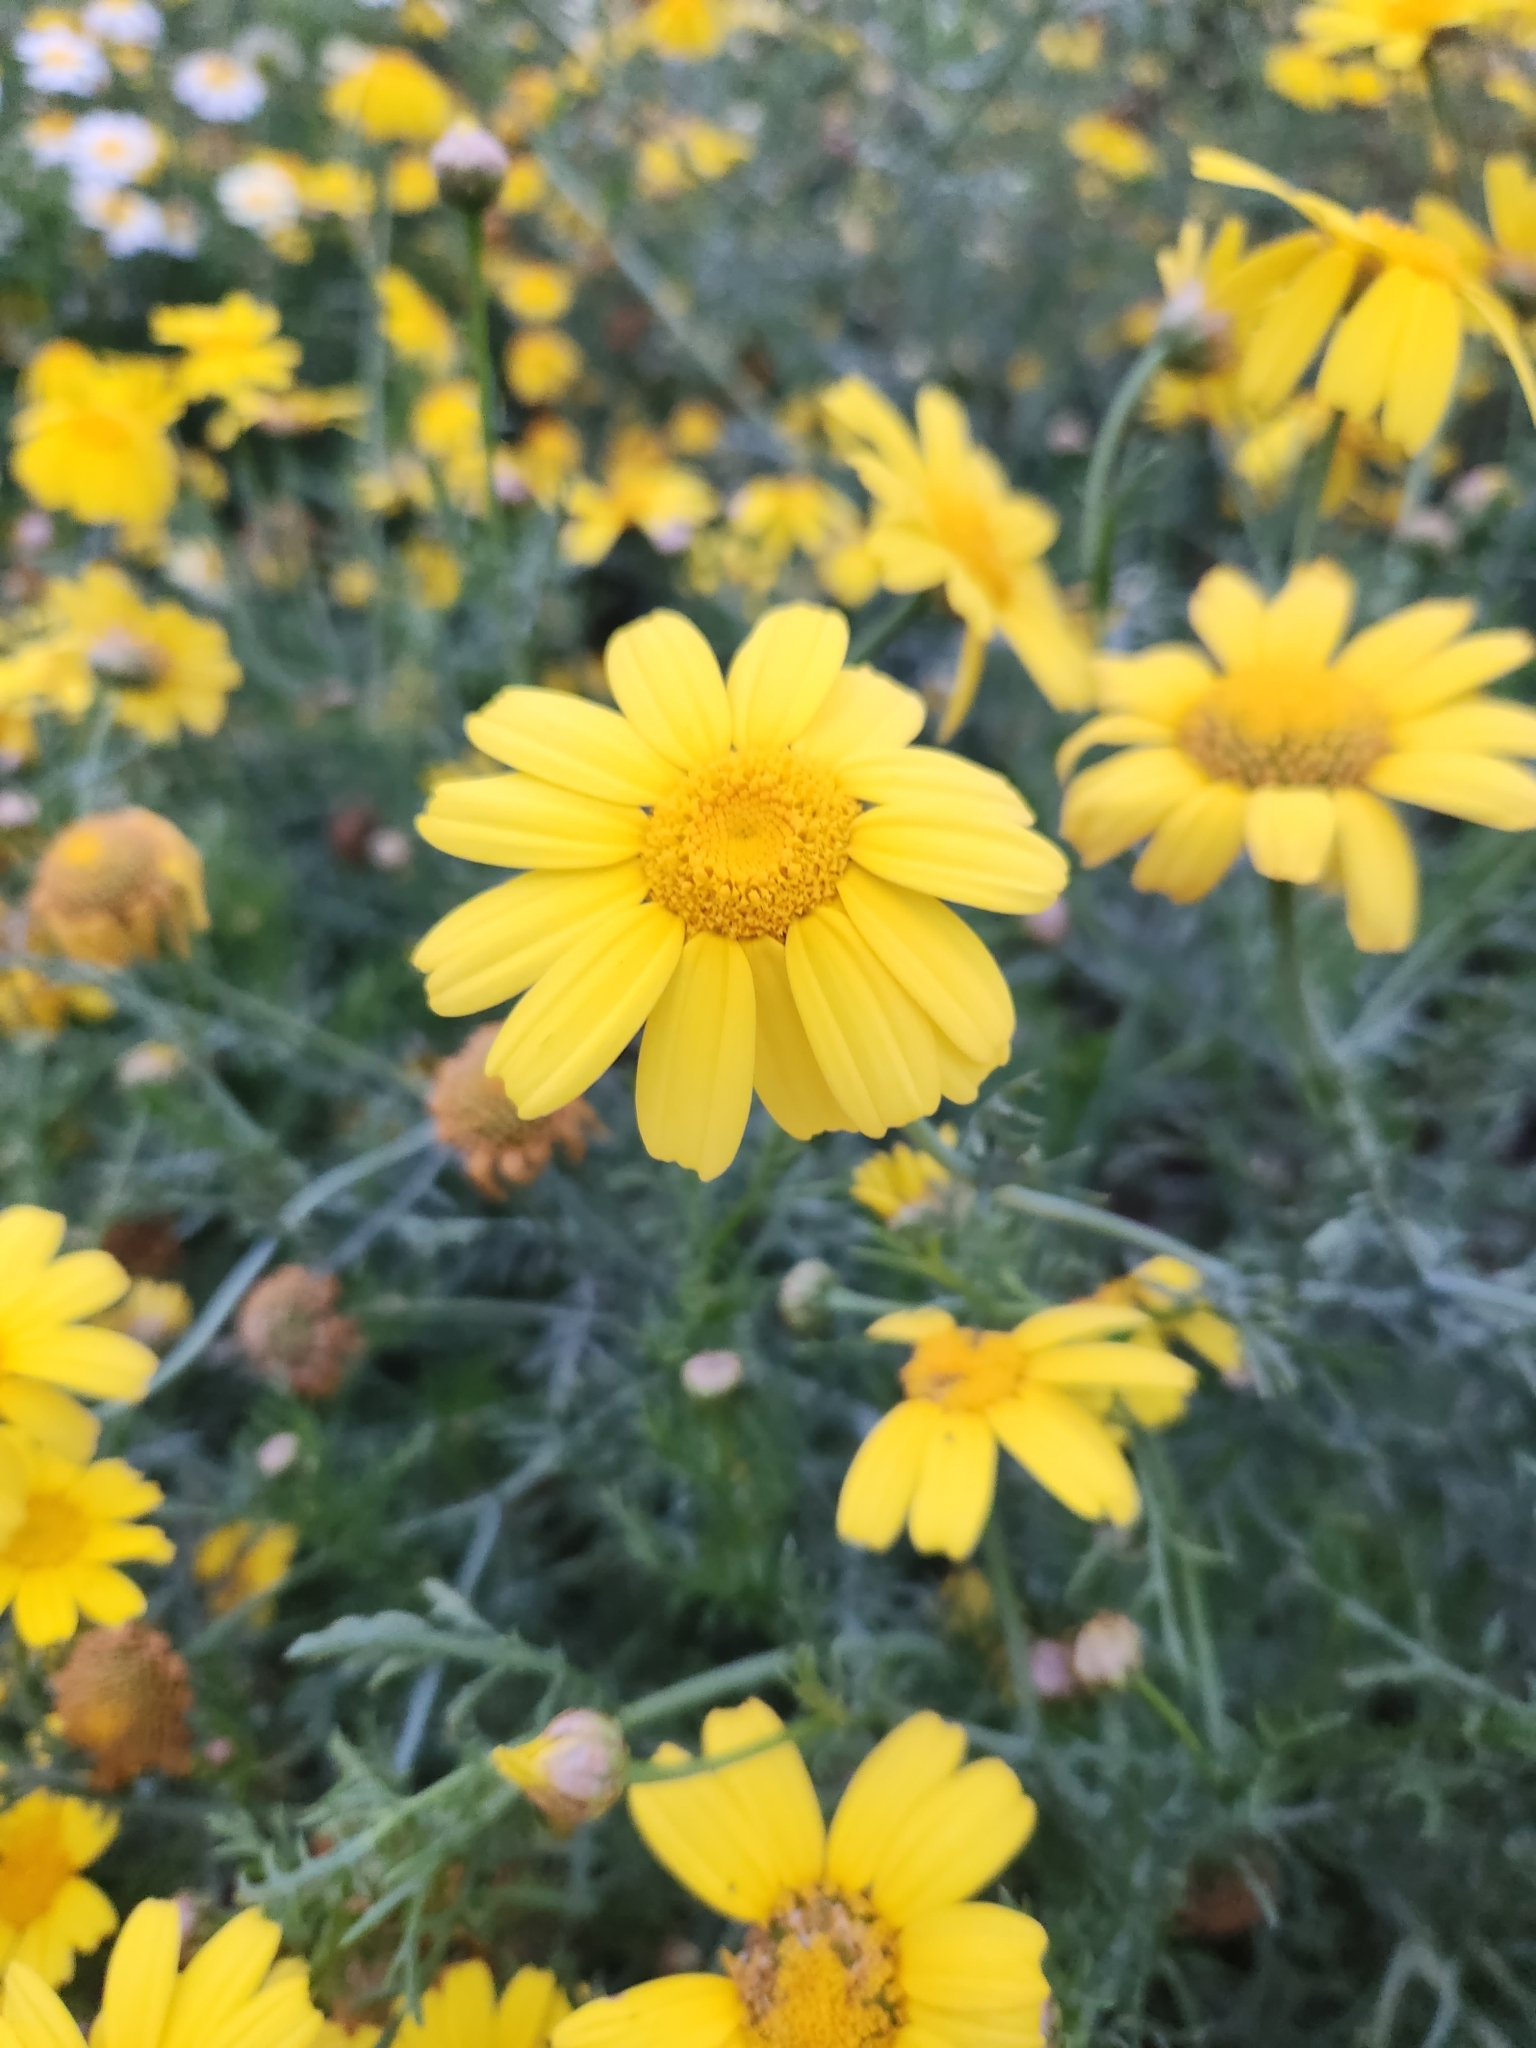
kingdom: Plantae
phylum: Tracheophyta
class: Magnoliopsida
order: Asterales
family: Asteraceae
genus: Glebionis
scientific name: Glebionis coronaria
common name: Crowndaisy
